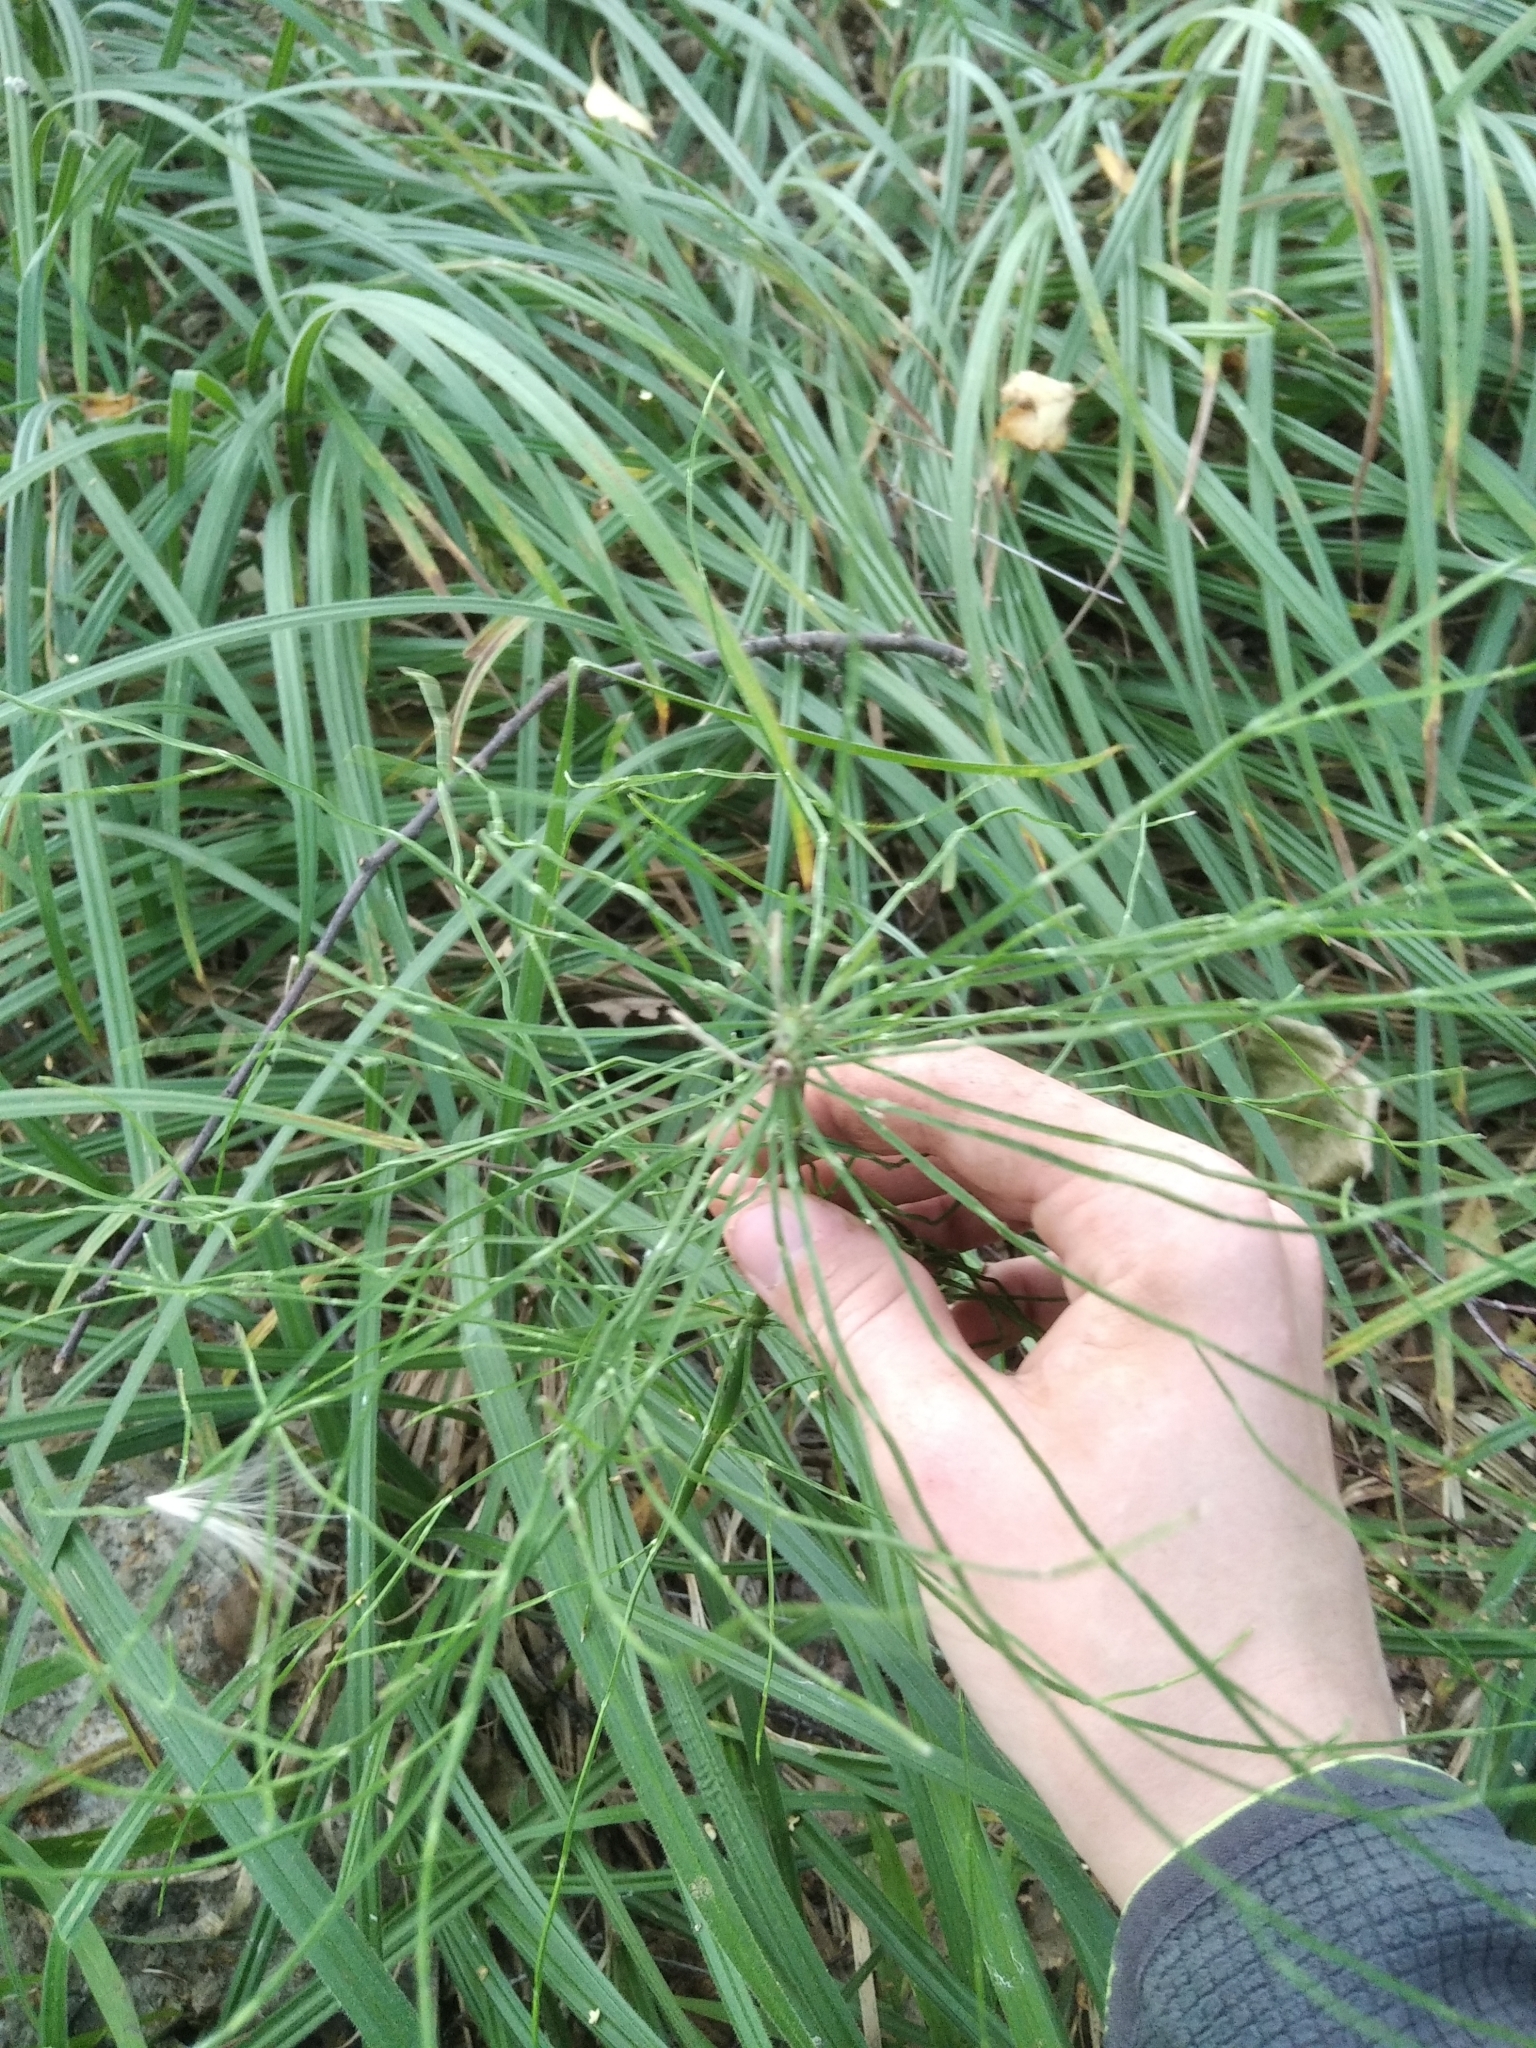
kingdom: Plantae
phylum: Tracheophyta
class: Polypodiopsida
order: Equisetales
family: Equisetaceae
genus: Equisetum
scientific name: Equisetum pratense
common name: Meadow horsetail
